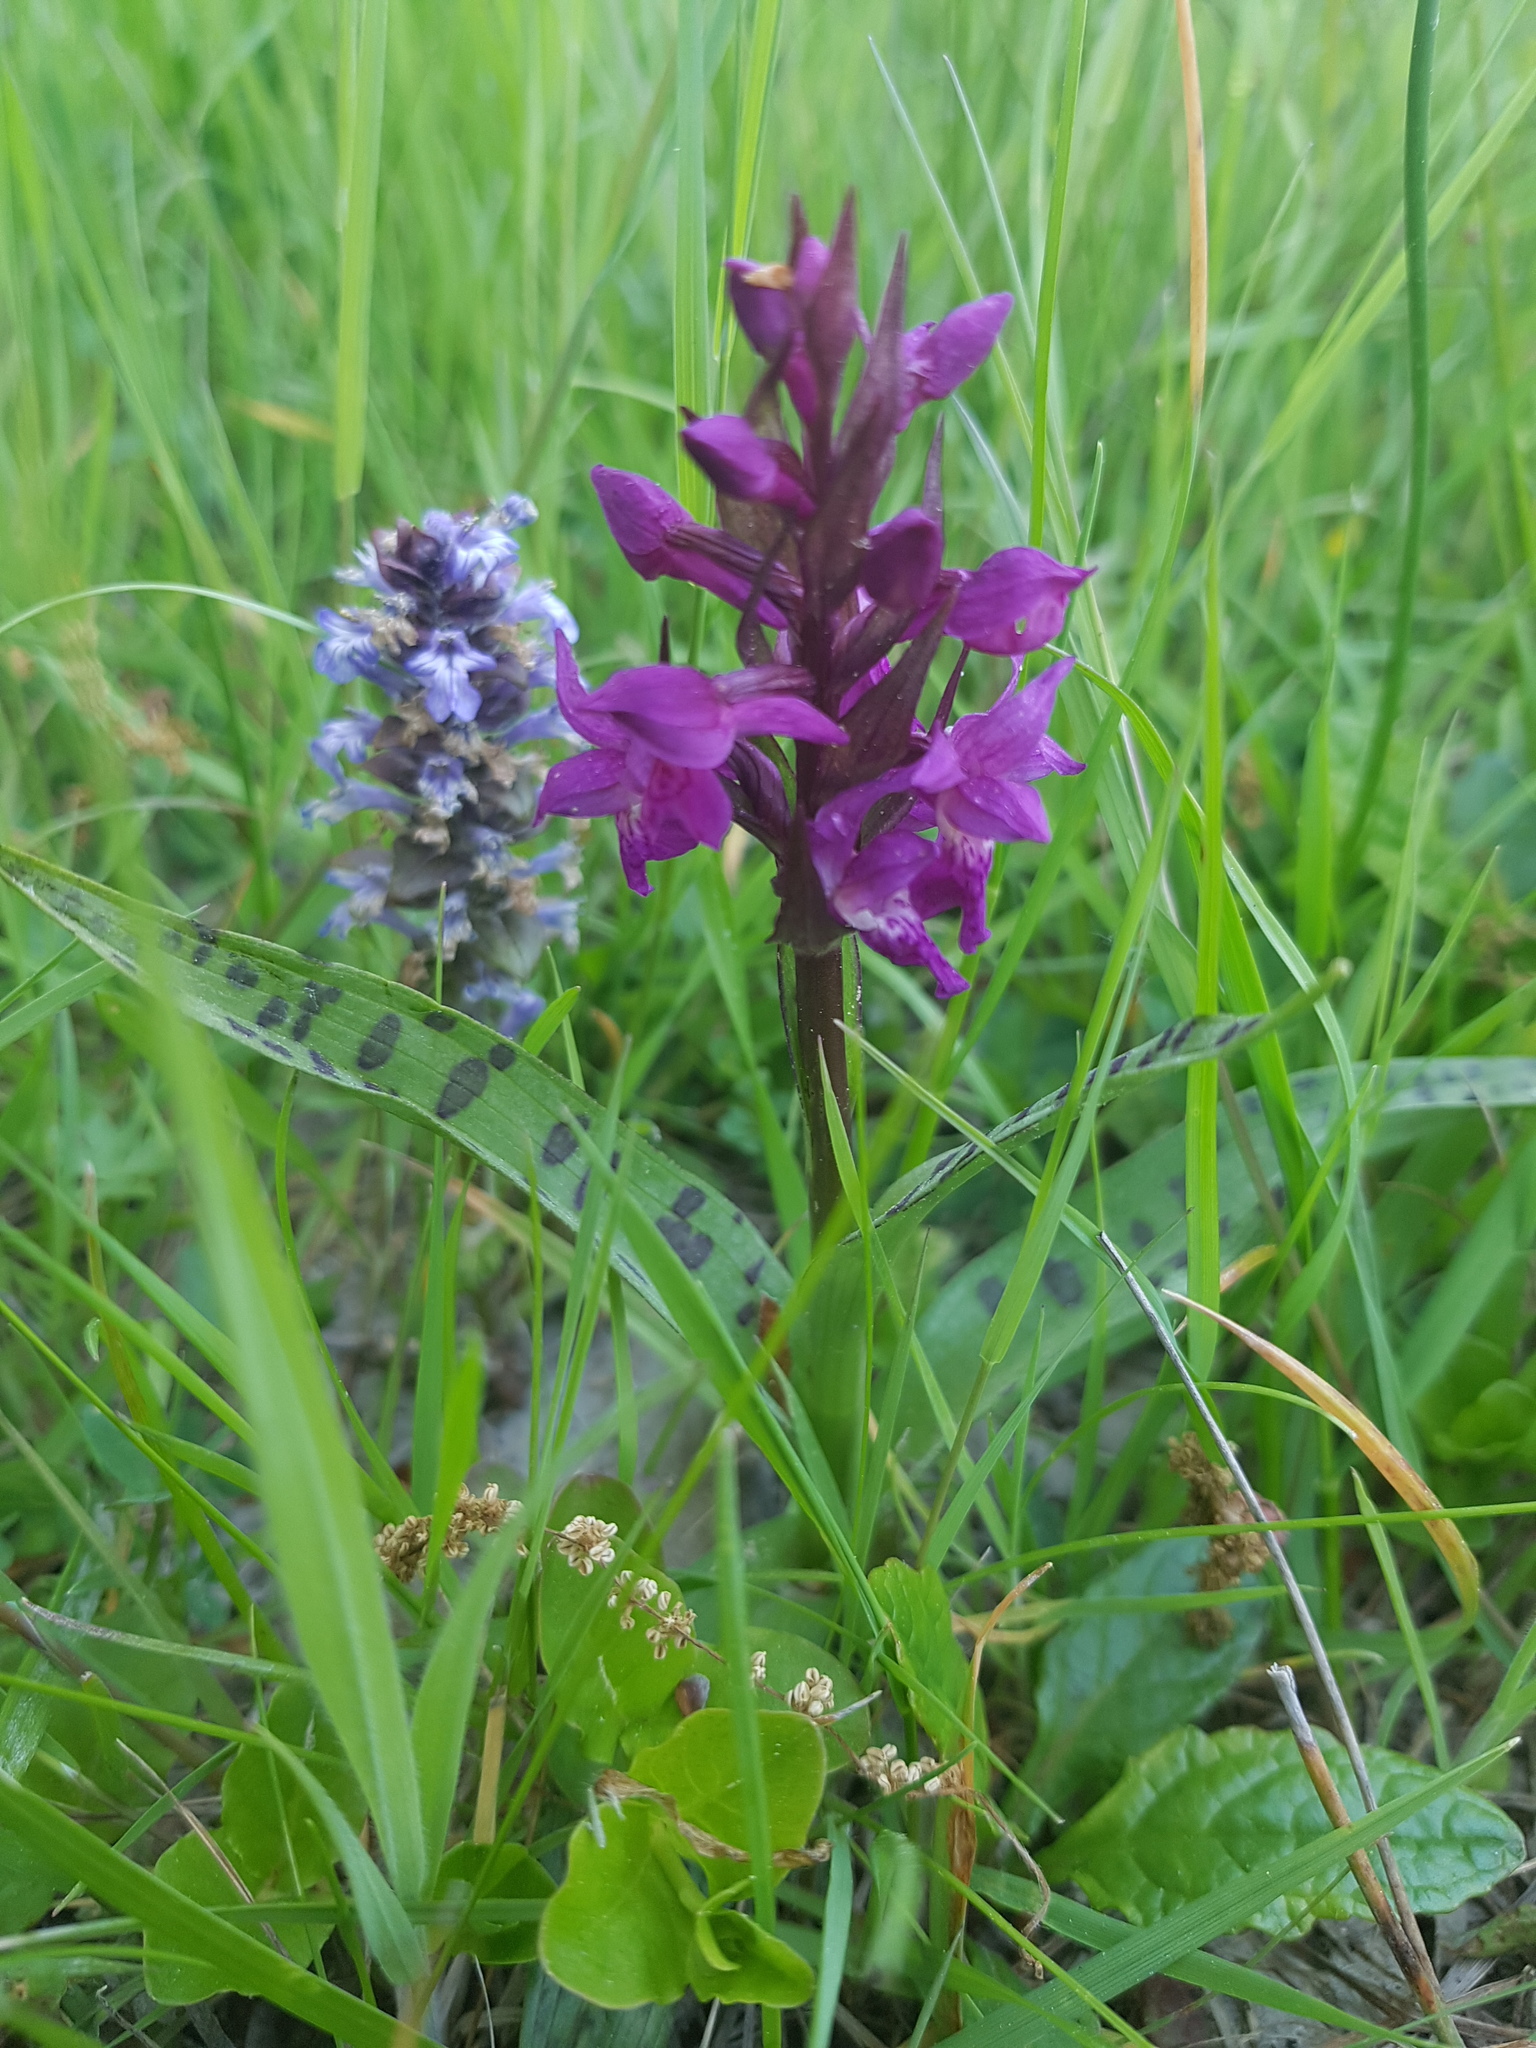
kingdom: Plantae
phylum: Tracheophyta
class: Liliopsida
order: Asparagales
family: Orchidaceae
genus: Dactylorhiza
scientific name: Dactylorhiza majalis
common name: Marsh orchid
